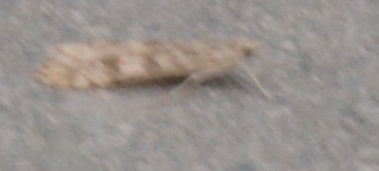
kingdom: Animalia
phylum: Arthropoda
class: Insecta
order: Lepidoptera
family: Crambidae
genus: Nomophila
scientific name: Nomophila noctuella
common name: Rush veneer
